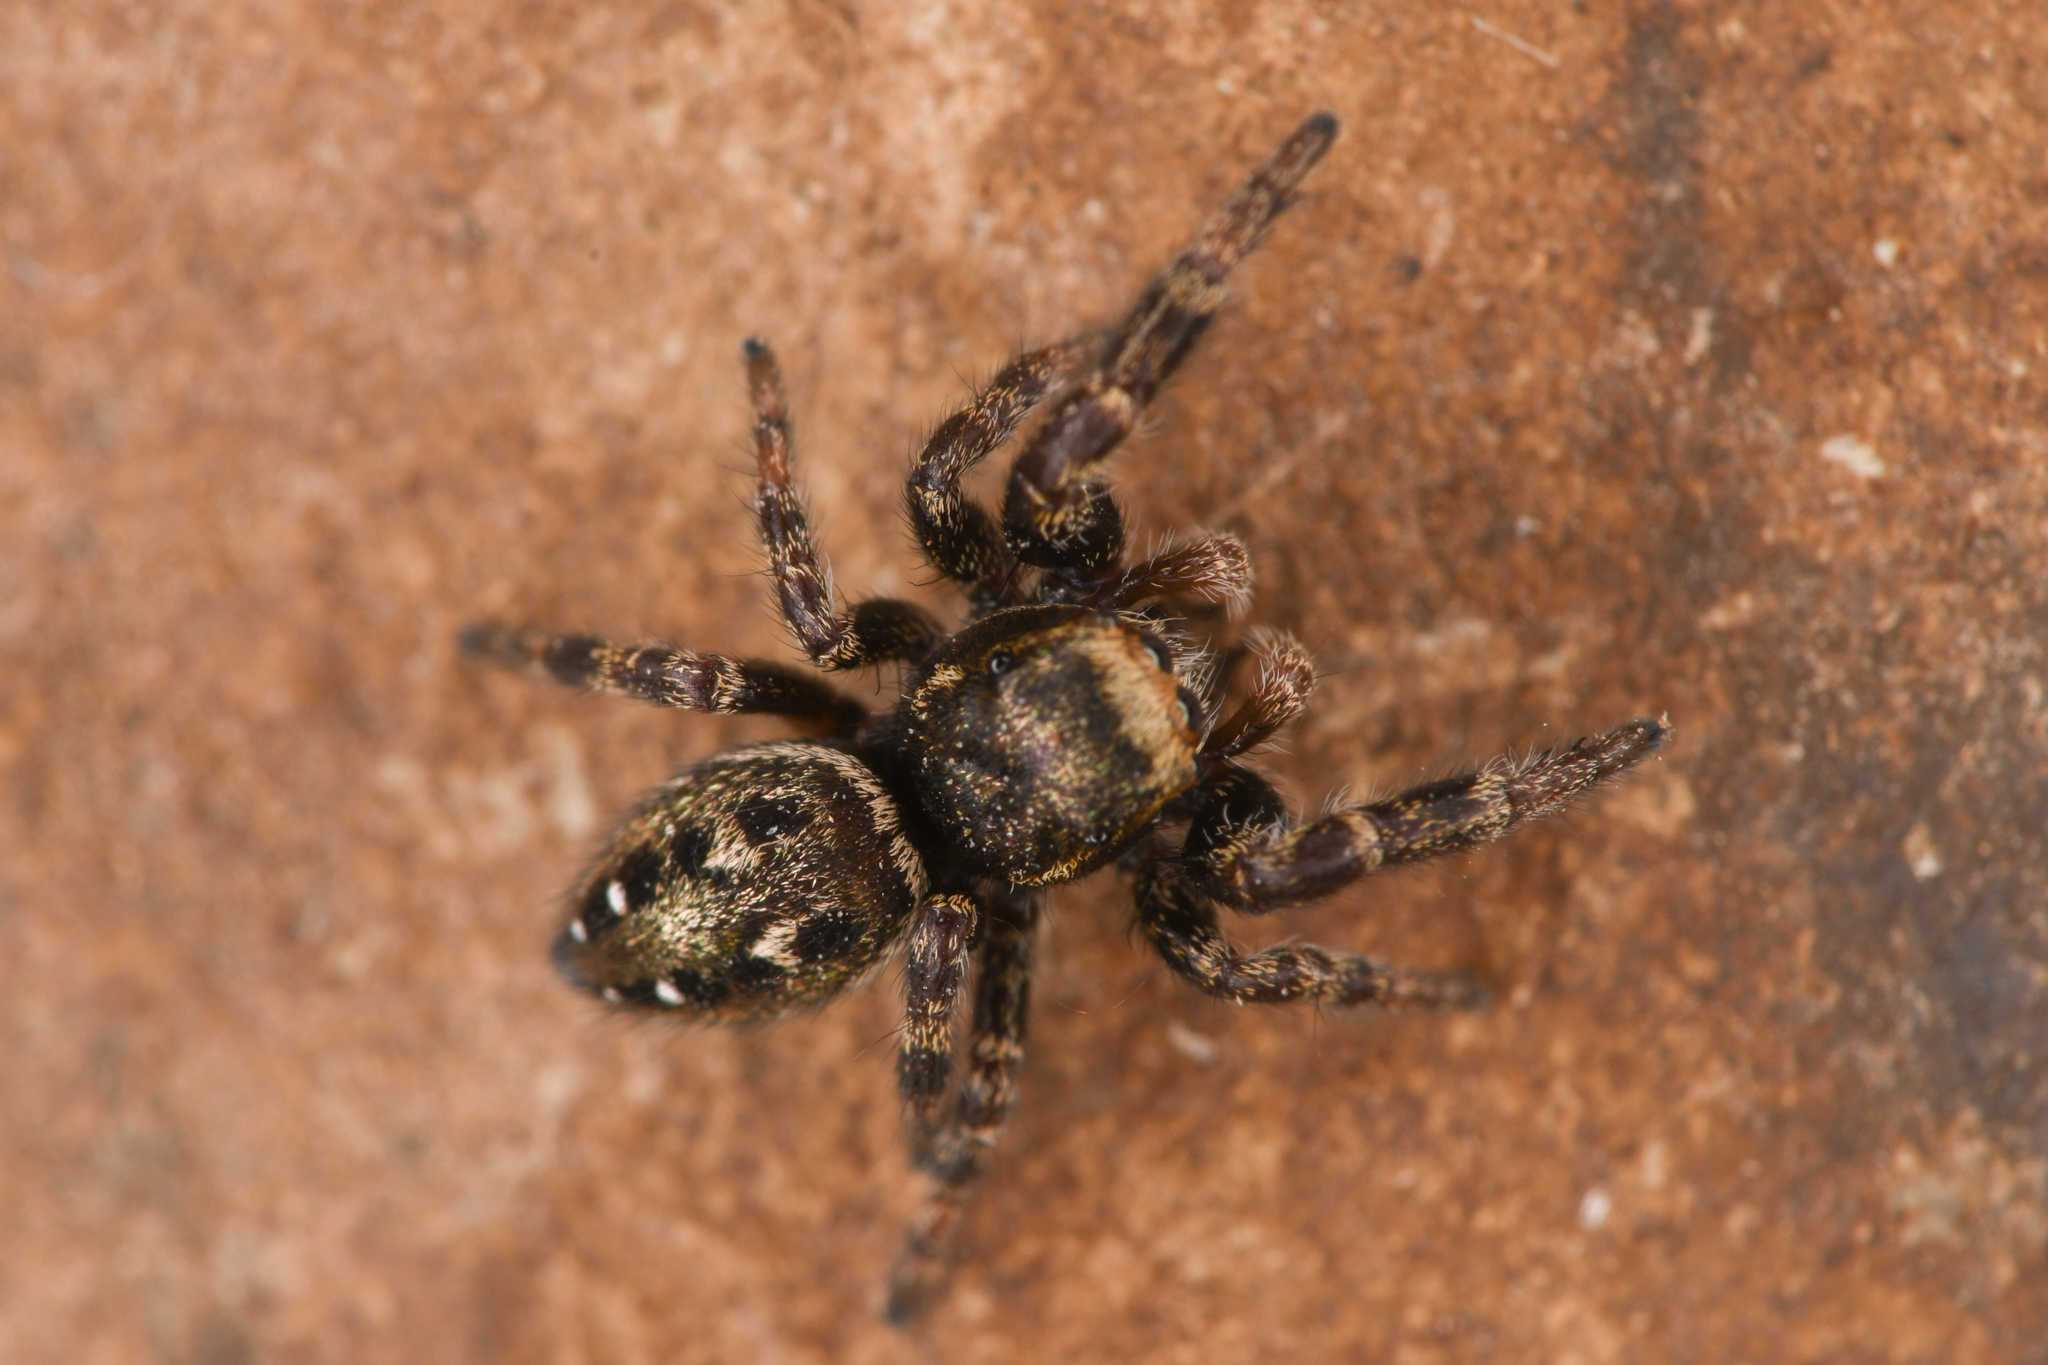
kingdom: Animalia
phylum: Arthropoda
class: Arachnida
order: Araneae
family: Salticidae
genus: Dendryphantes
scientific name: Dendryphantes nigromaculatus
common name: Black-marked jumping spider
